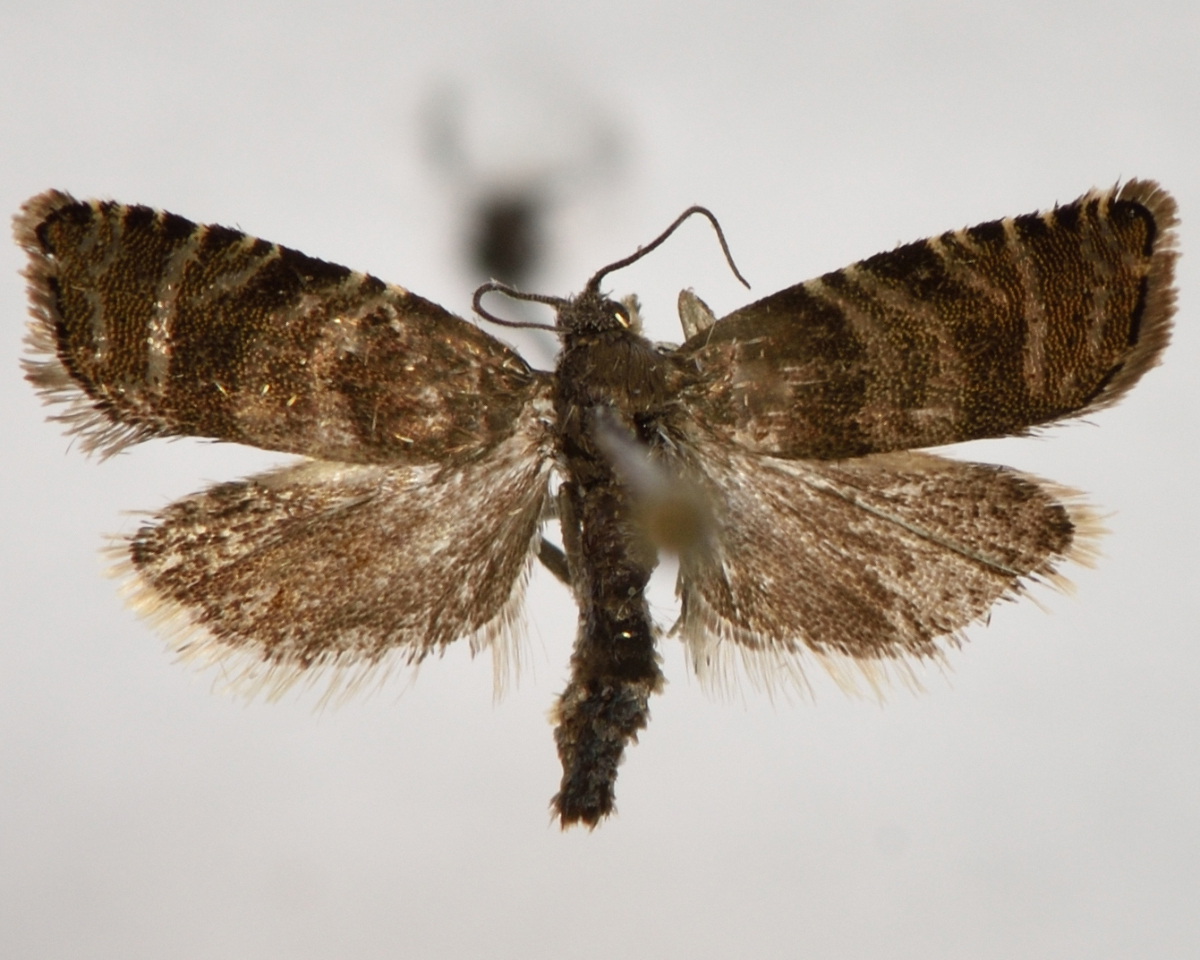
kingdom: Animalia
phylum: Arthropoda
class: Insecta
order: Lepidoptera
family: Tortricidae
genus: Cydia
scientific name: Cydia strobilella
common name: Spruce seed moth
